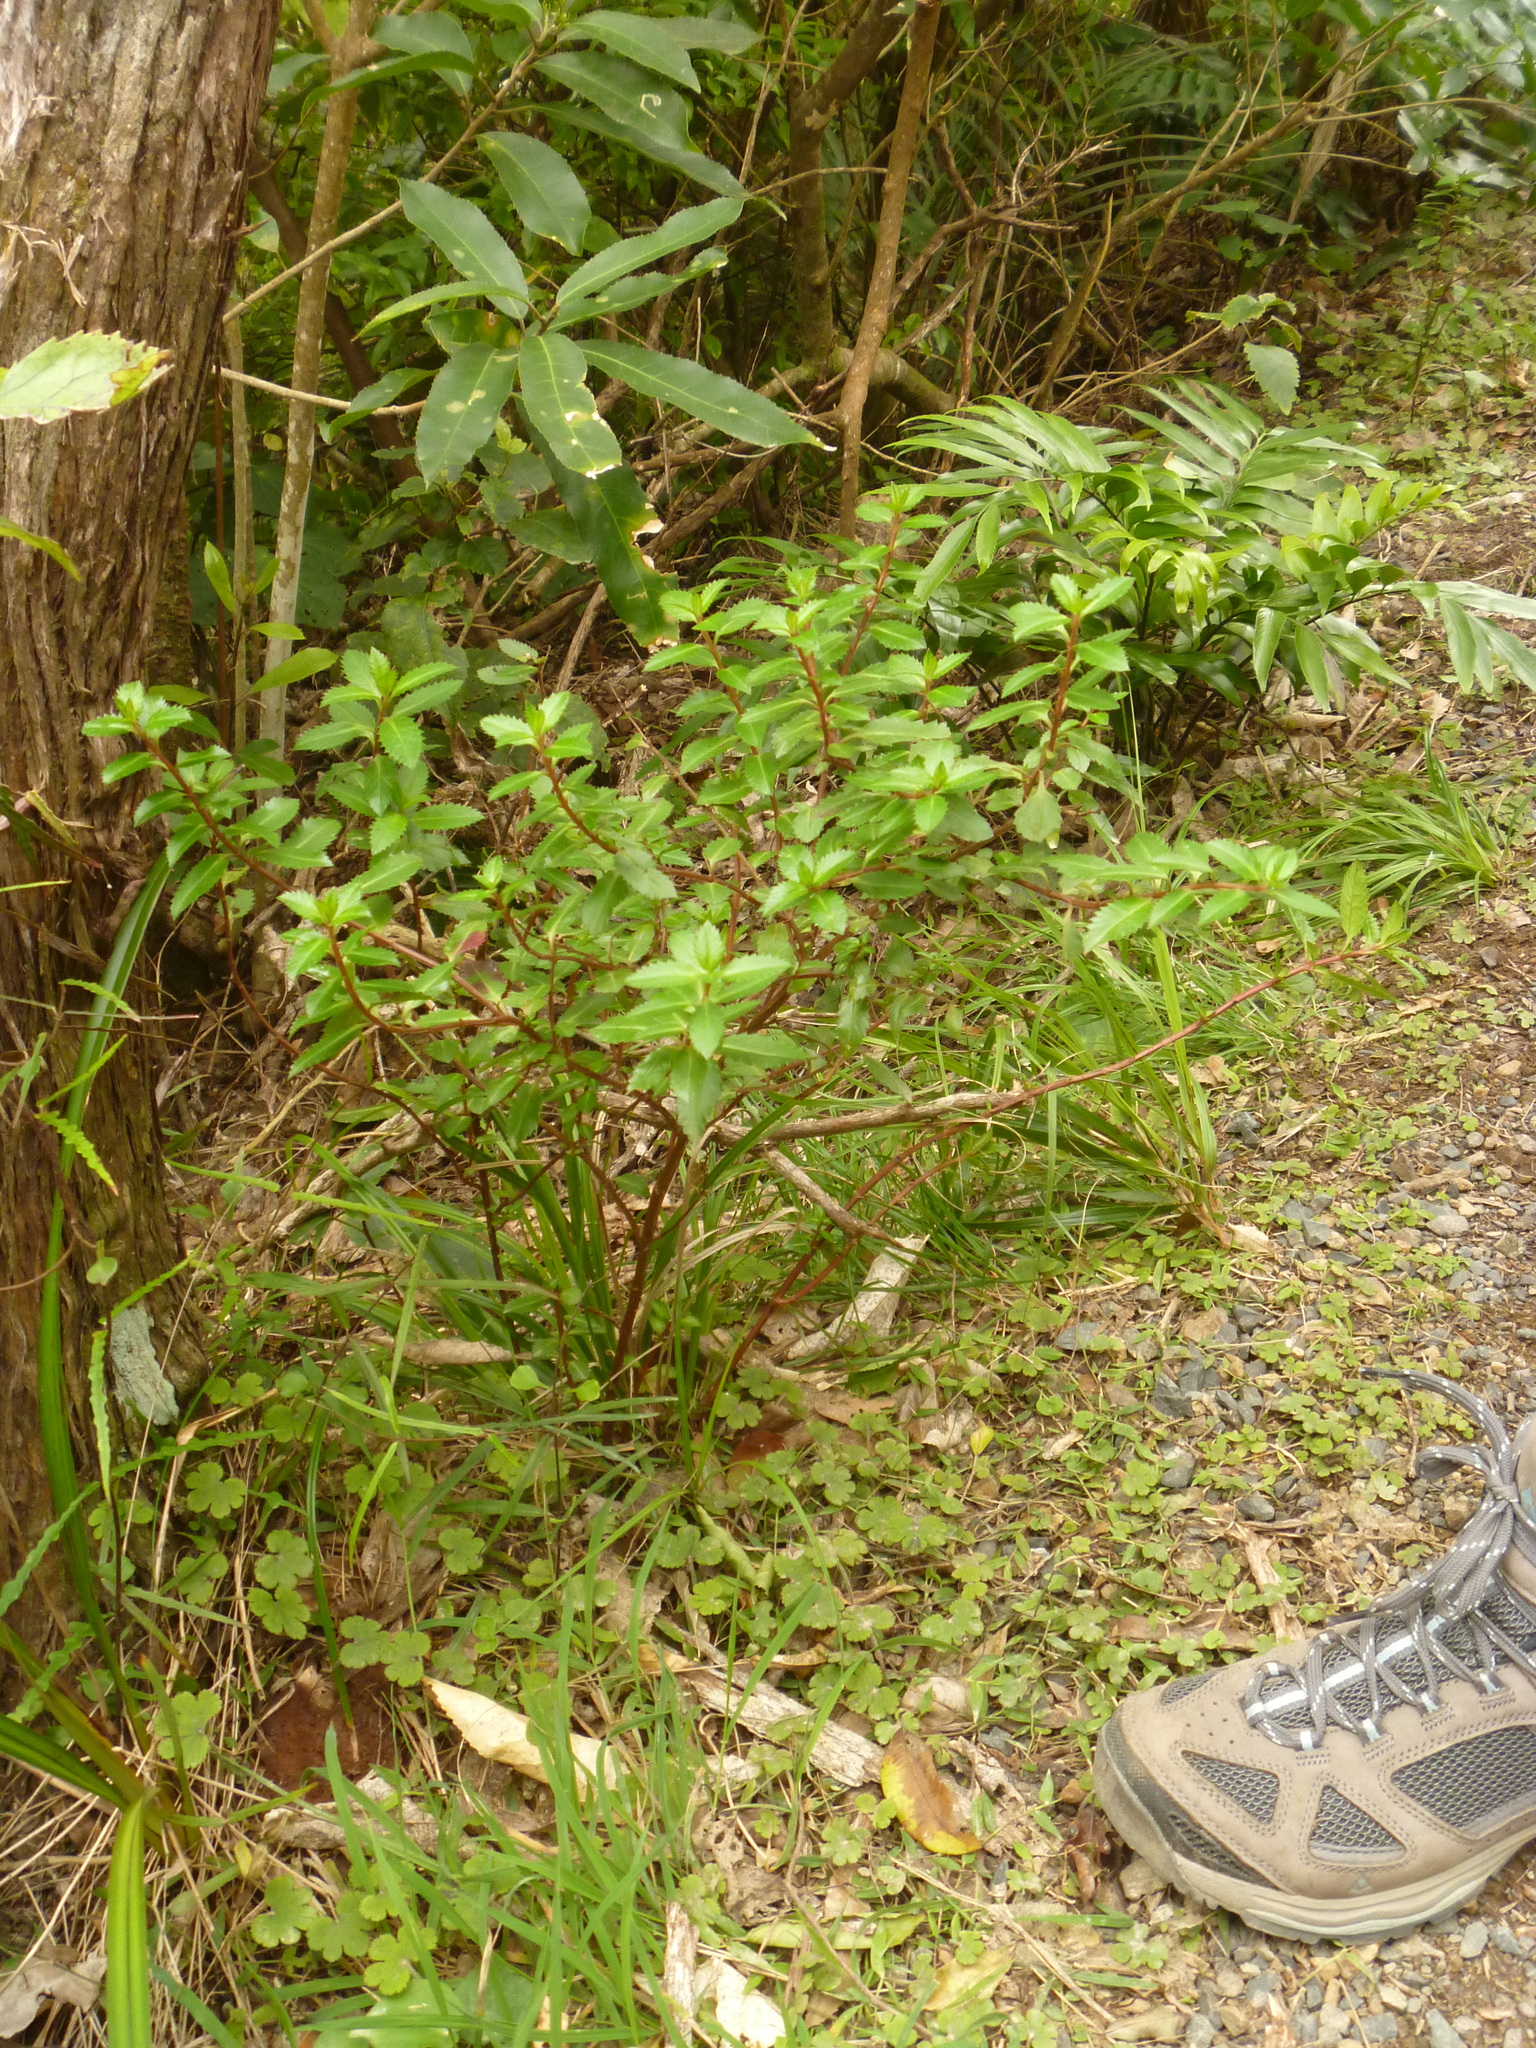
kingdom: Plantae
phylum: Tracheophyta
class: Magnoliopsida
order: Saxifragales
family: Haloragaceae
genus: Haloragis
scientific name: Haloragis erecta
